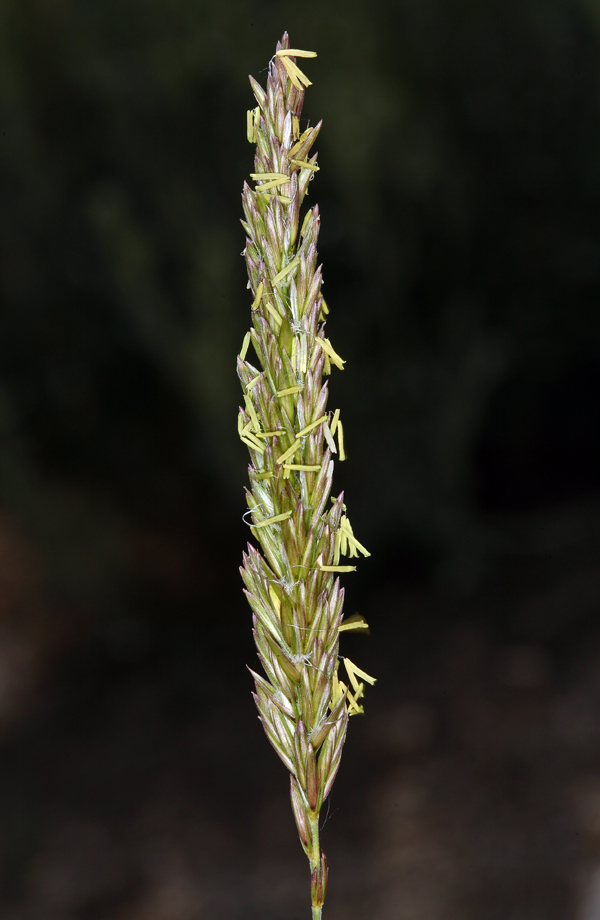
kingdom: Plantae
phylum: Tracheophyta
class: Liliopsida
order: Poales
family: Poaceae
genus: Leymus
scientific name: Leymus cinereus
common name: Basin wild rye
